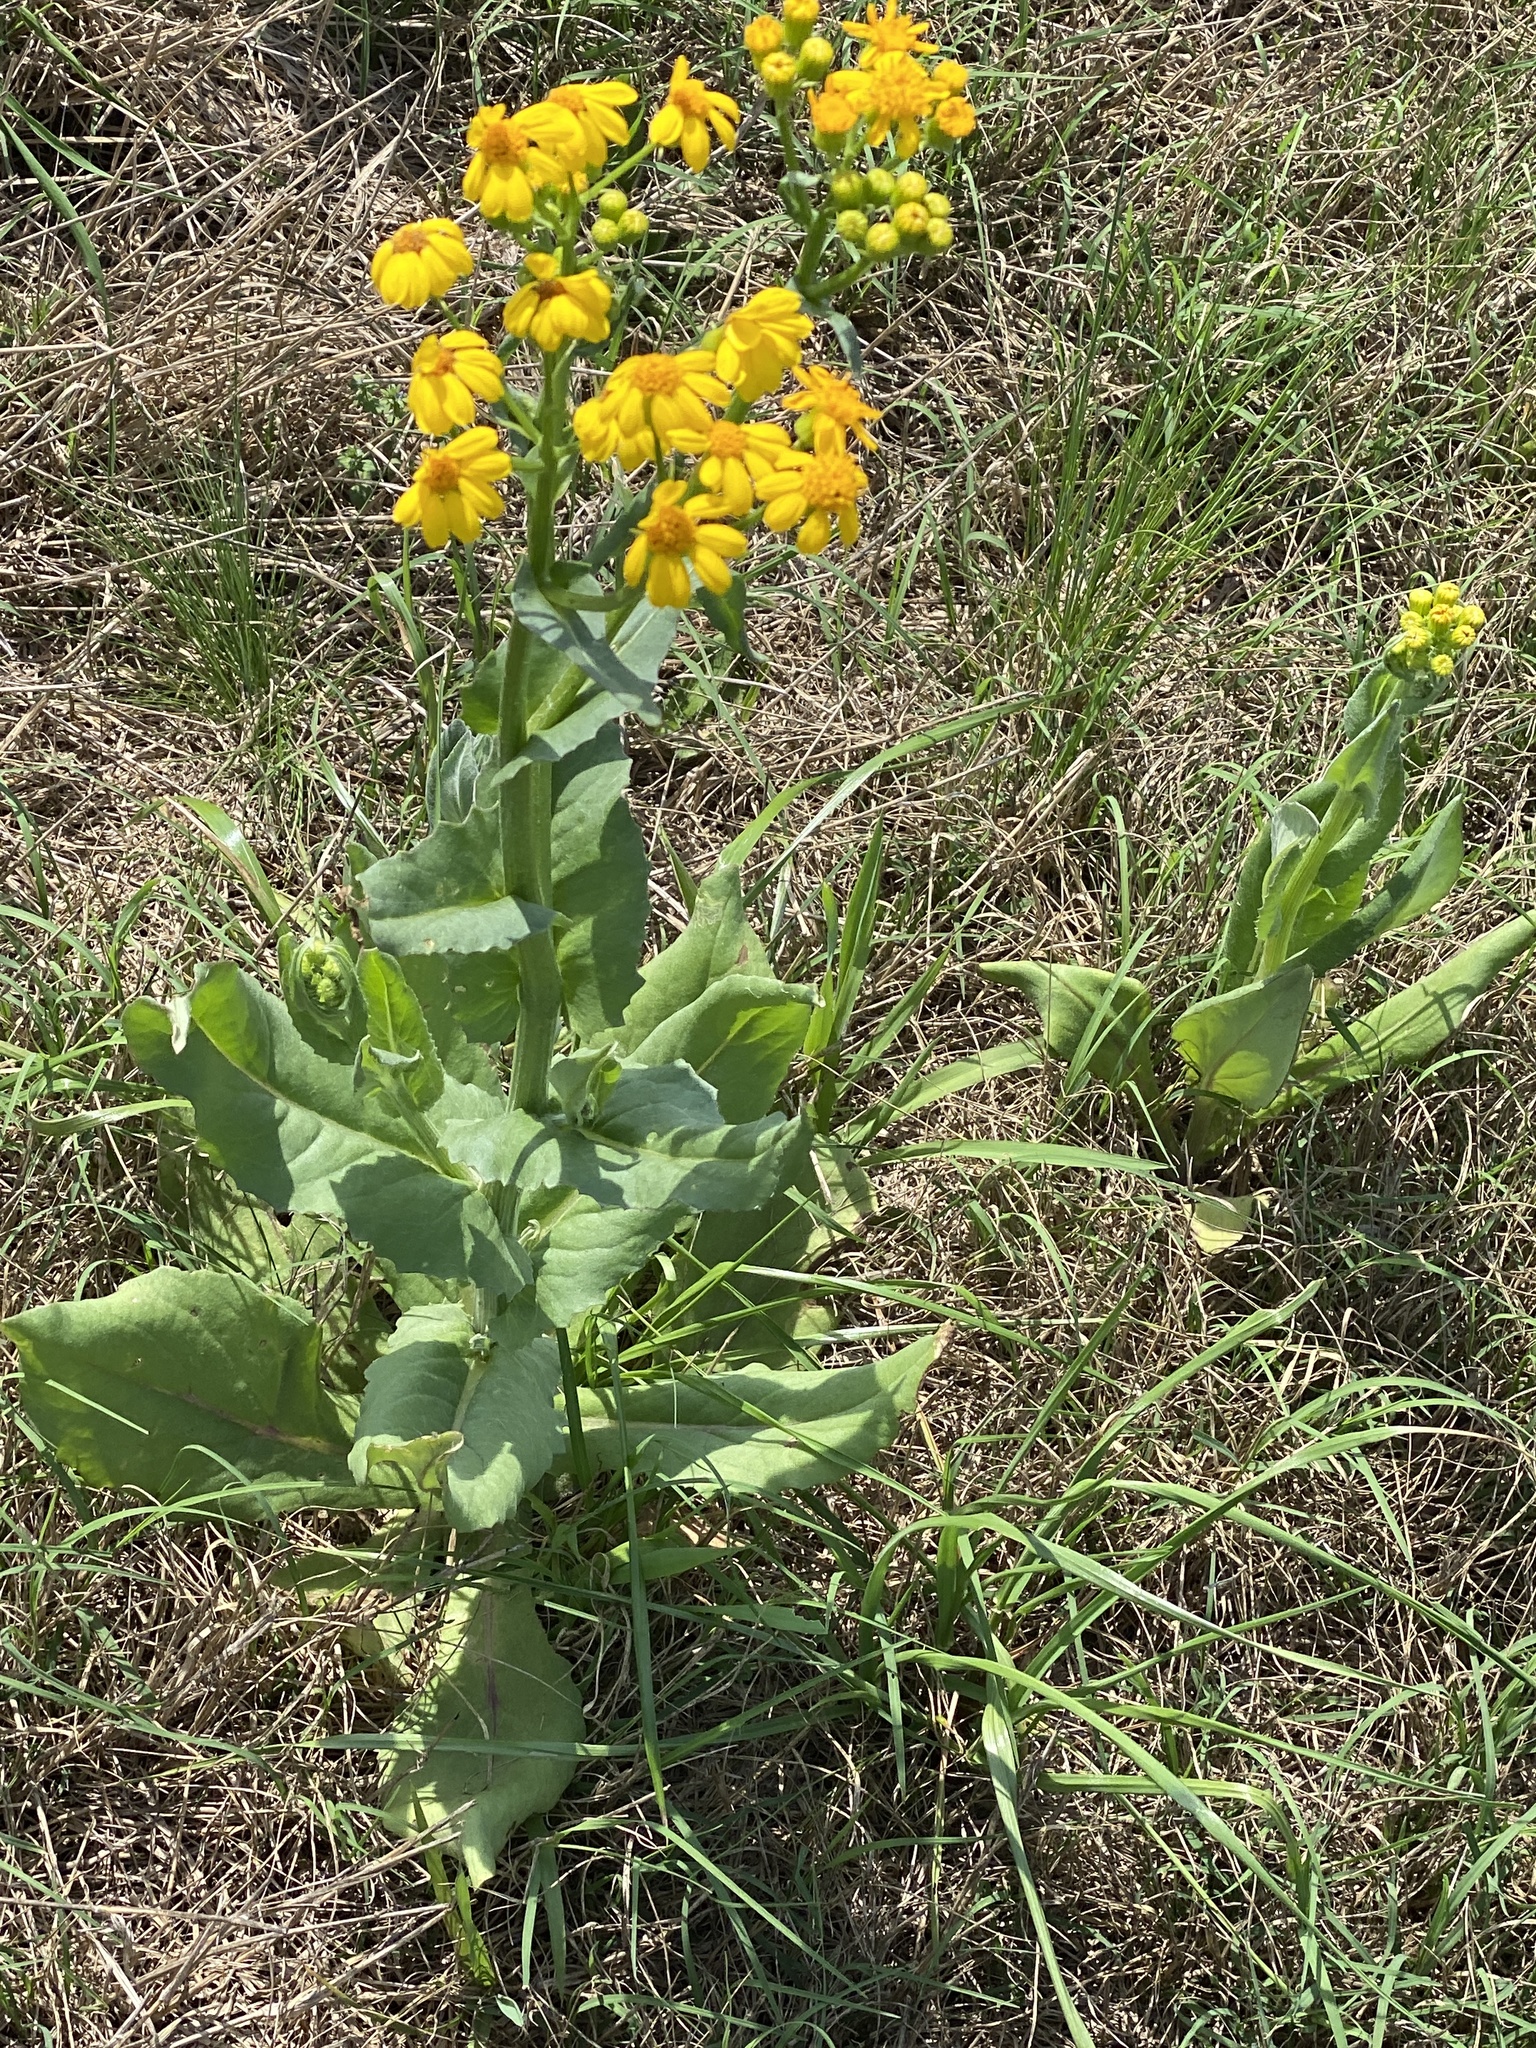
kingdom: Plantae
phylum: Tracheophyta
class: Magnoliopsida
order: Asterales
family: Asteraceae
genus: Senecio
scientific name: Senecio ampullaceus
